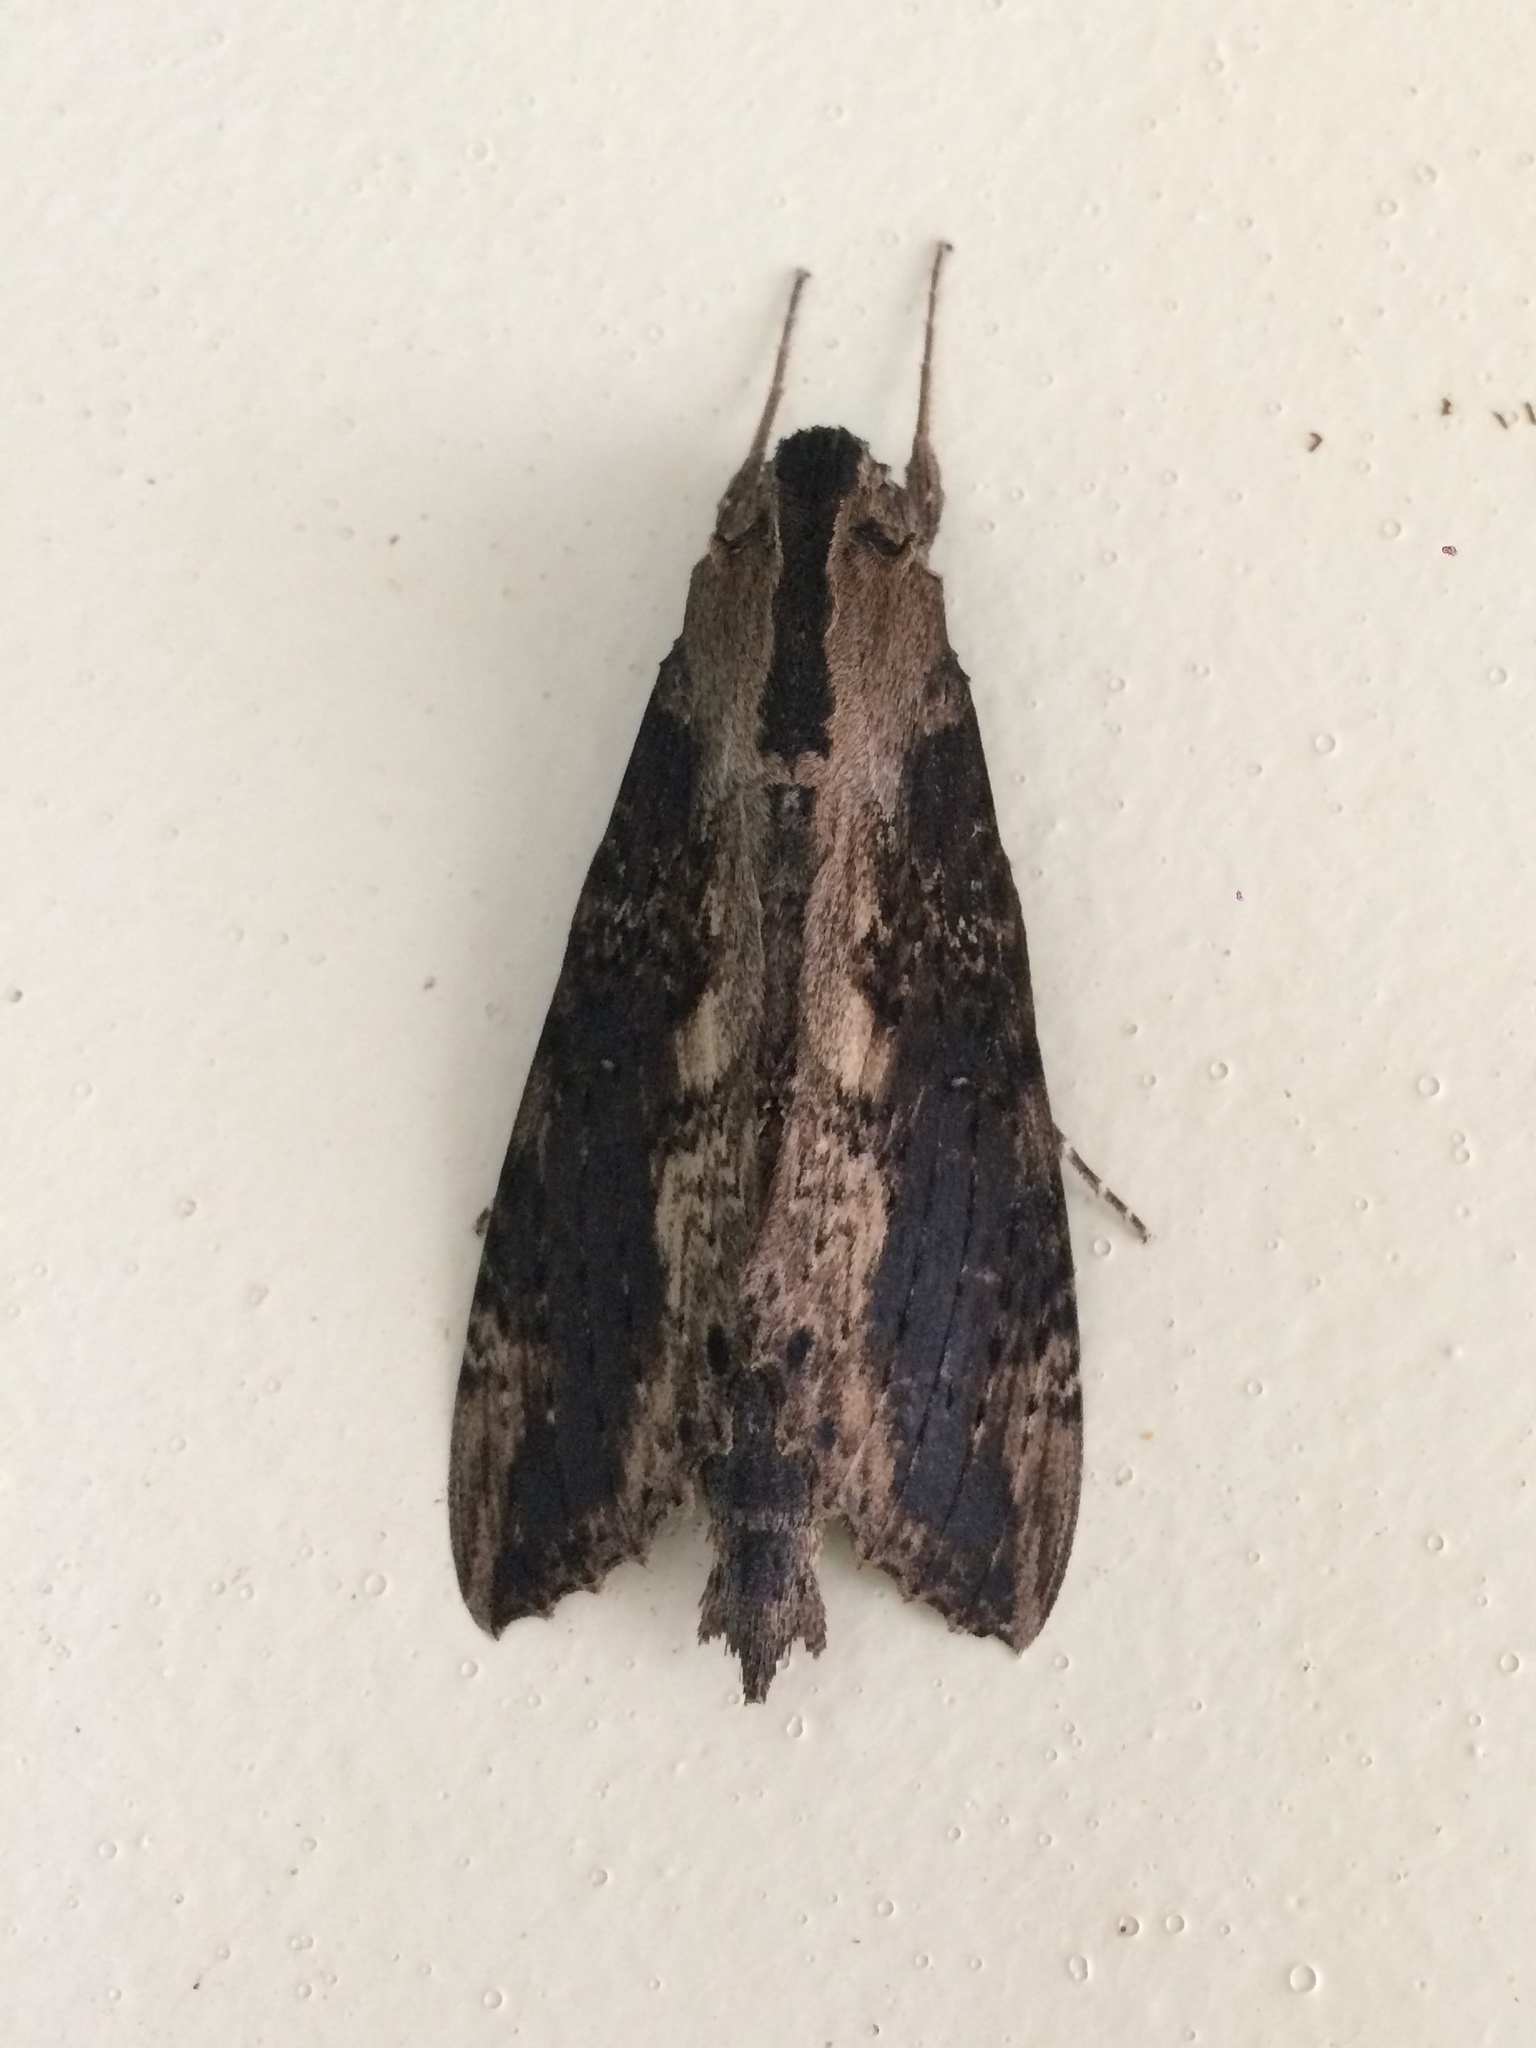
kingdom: Animalia
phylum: Arthropoda
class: Insecta
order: Lepidoptera
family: Sphingidae
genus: Erinnyis
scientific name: Erinnyis crameri
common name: Cramer's sphinx
